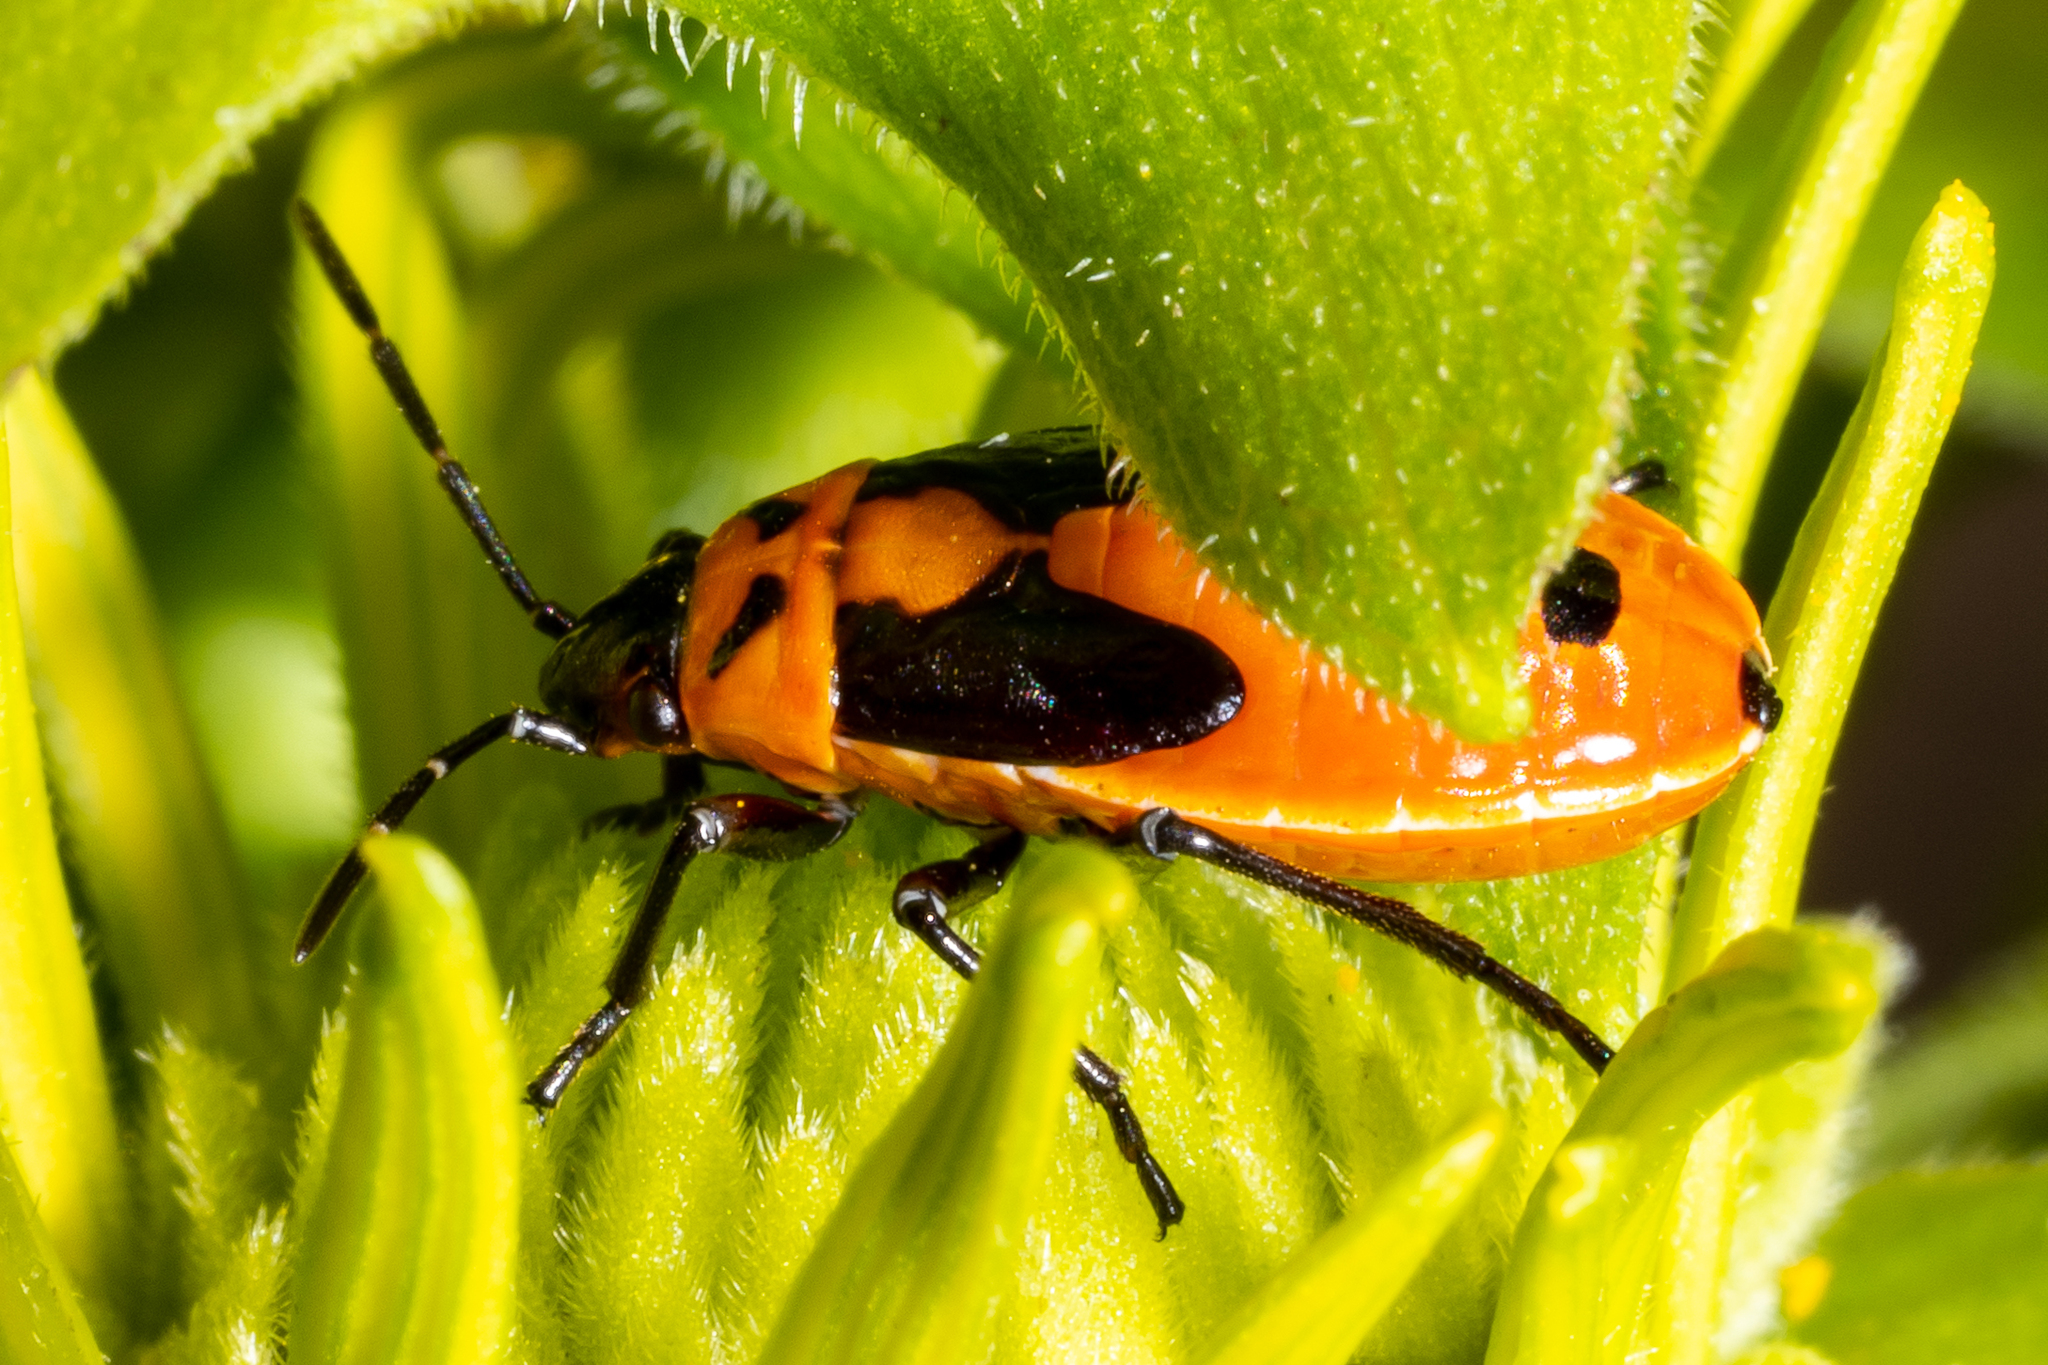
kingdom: Animalia
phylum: Arthropoda
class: Insecta
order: Hemiptera
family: Lygaeidae
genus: Lygaeus
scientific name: Lygaeus turcicus
